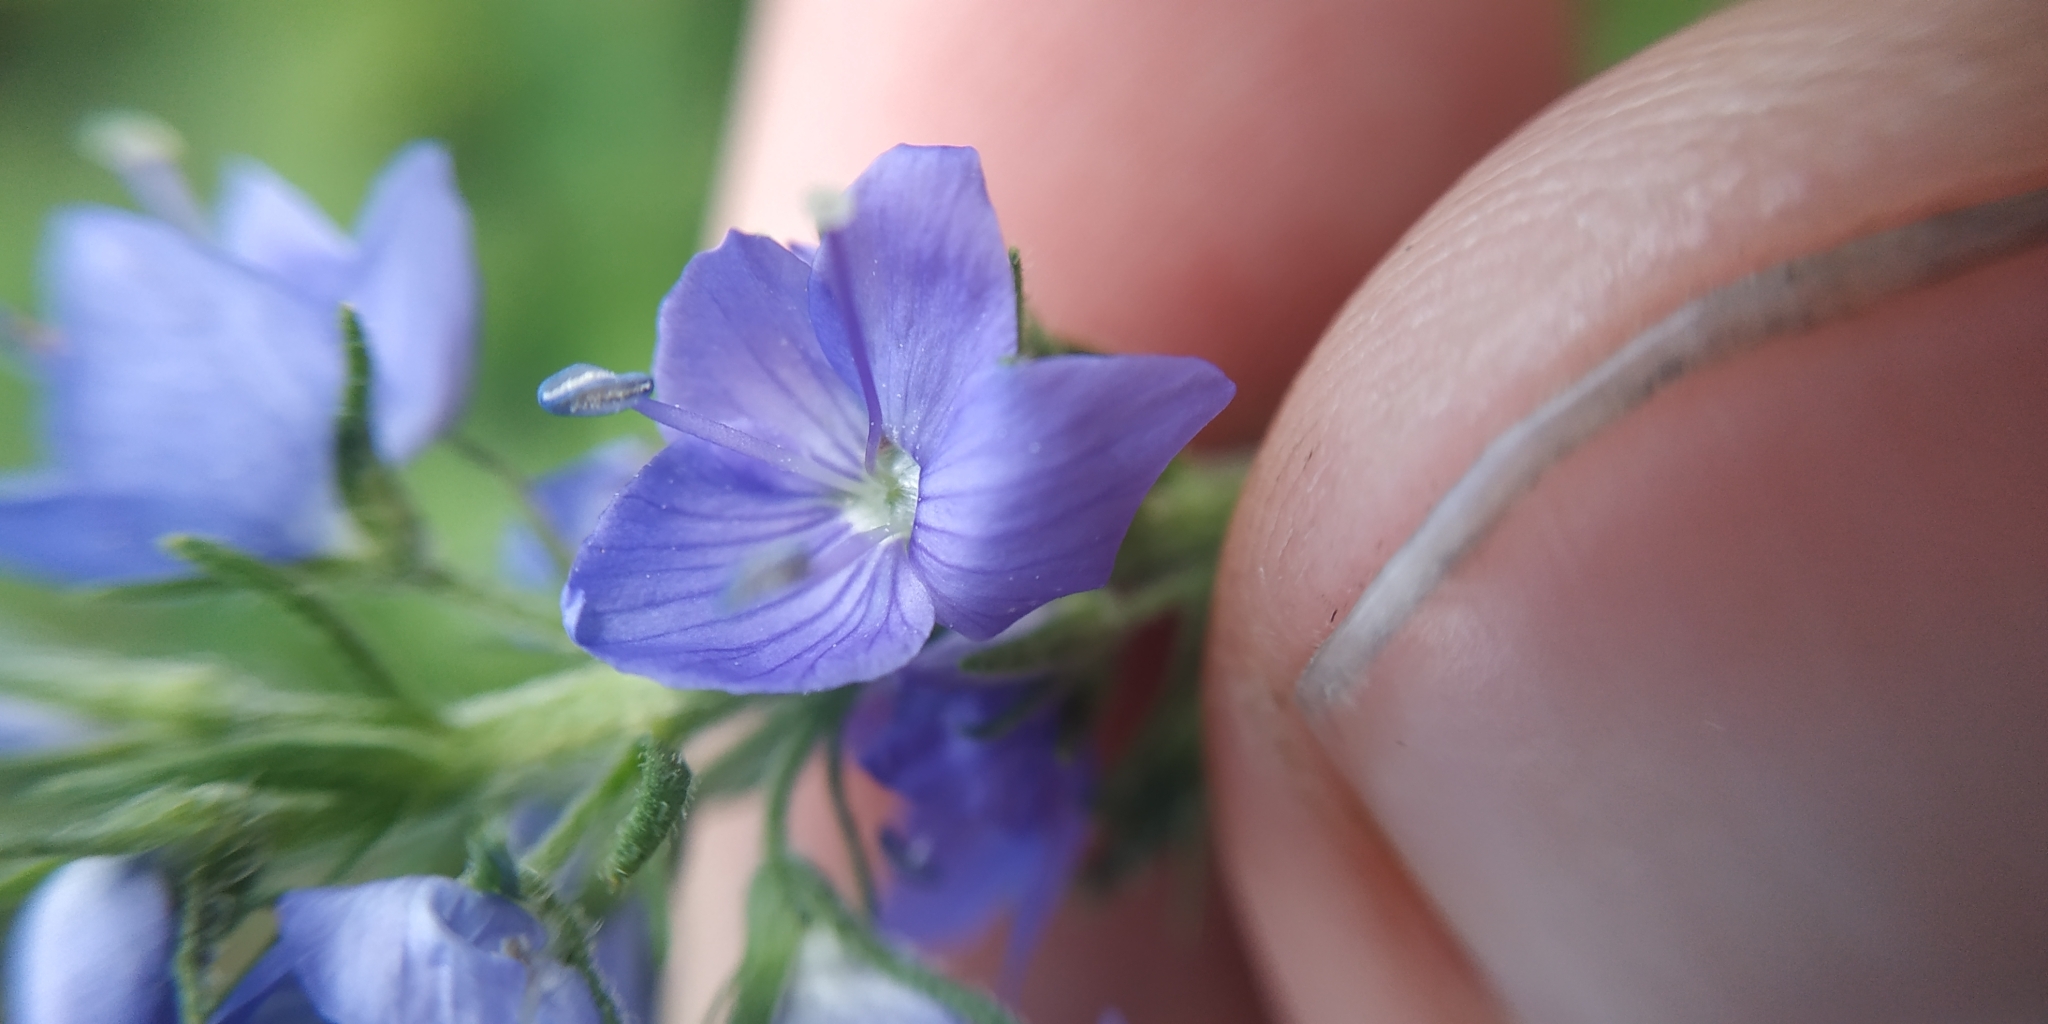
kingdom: Plantae
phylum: Tracheophyta
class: Magnoliopsida
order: Lamiales
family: Plantaginaceae
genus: Veronica
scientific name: Veronica teucrium
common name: Large speedwell
